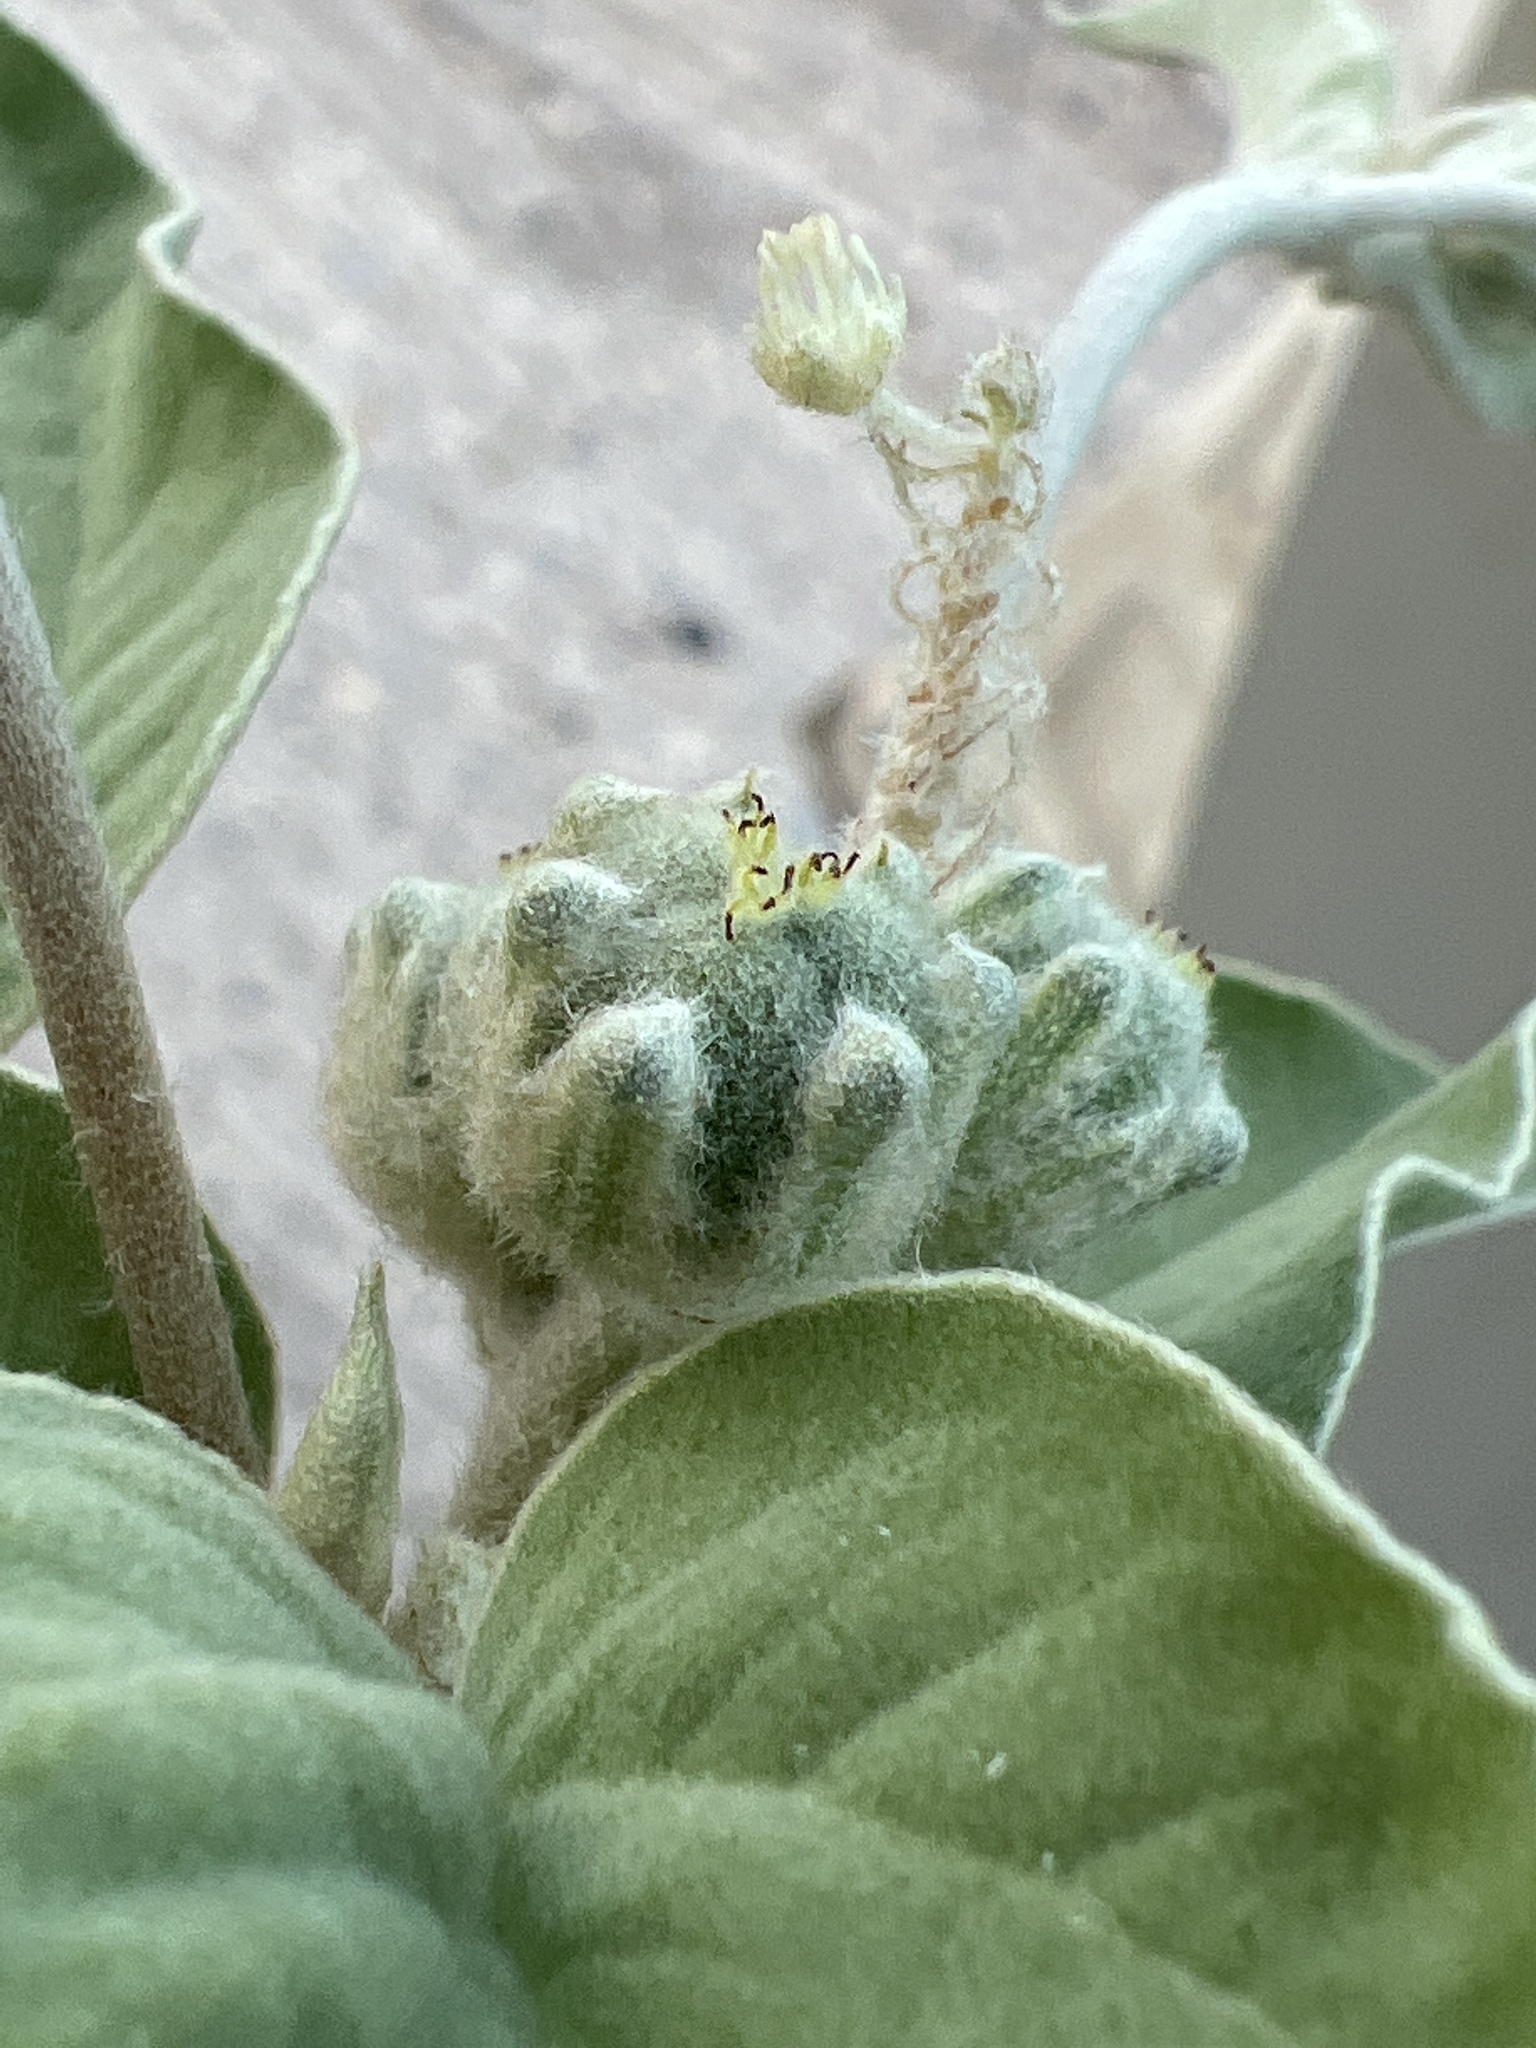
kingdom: Plantae
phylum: Tracheophyta
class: Magnoliopsida
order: Malpighiales
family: Euphorbiaceae
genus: Croton
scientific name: Croton lindheimeri
